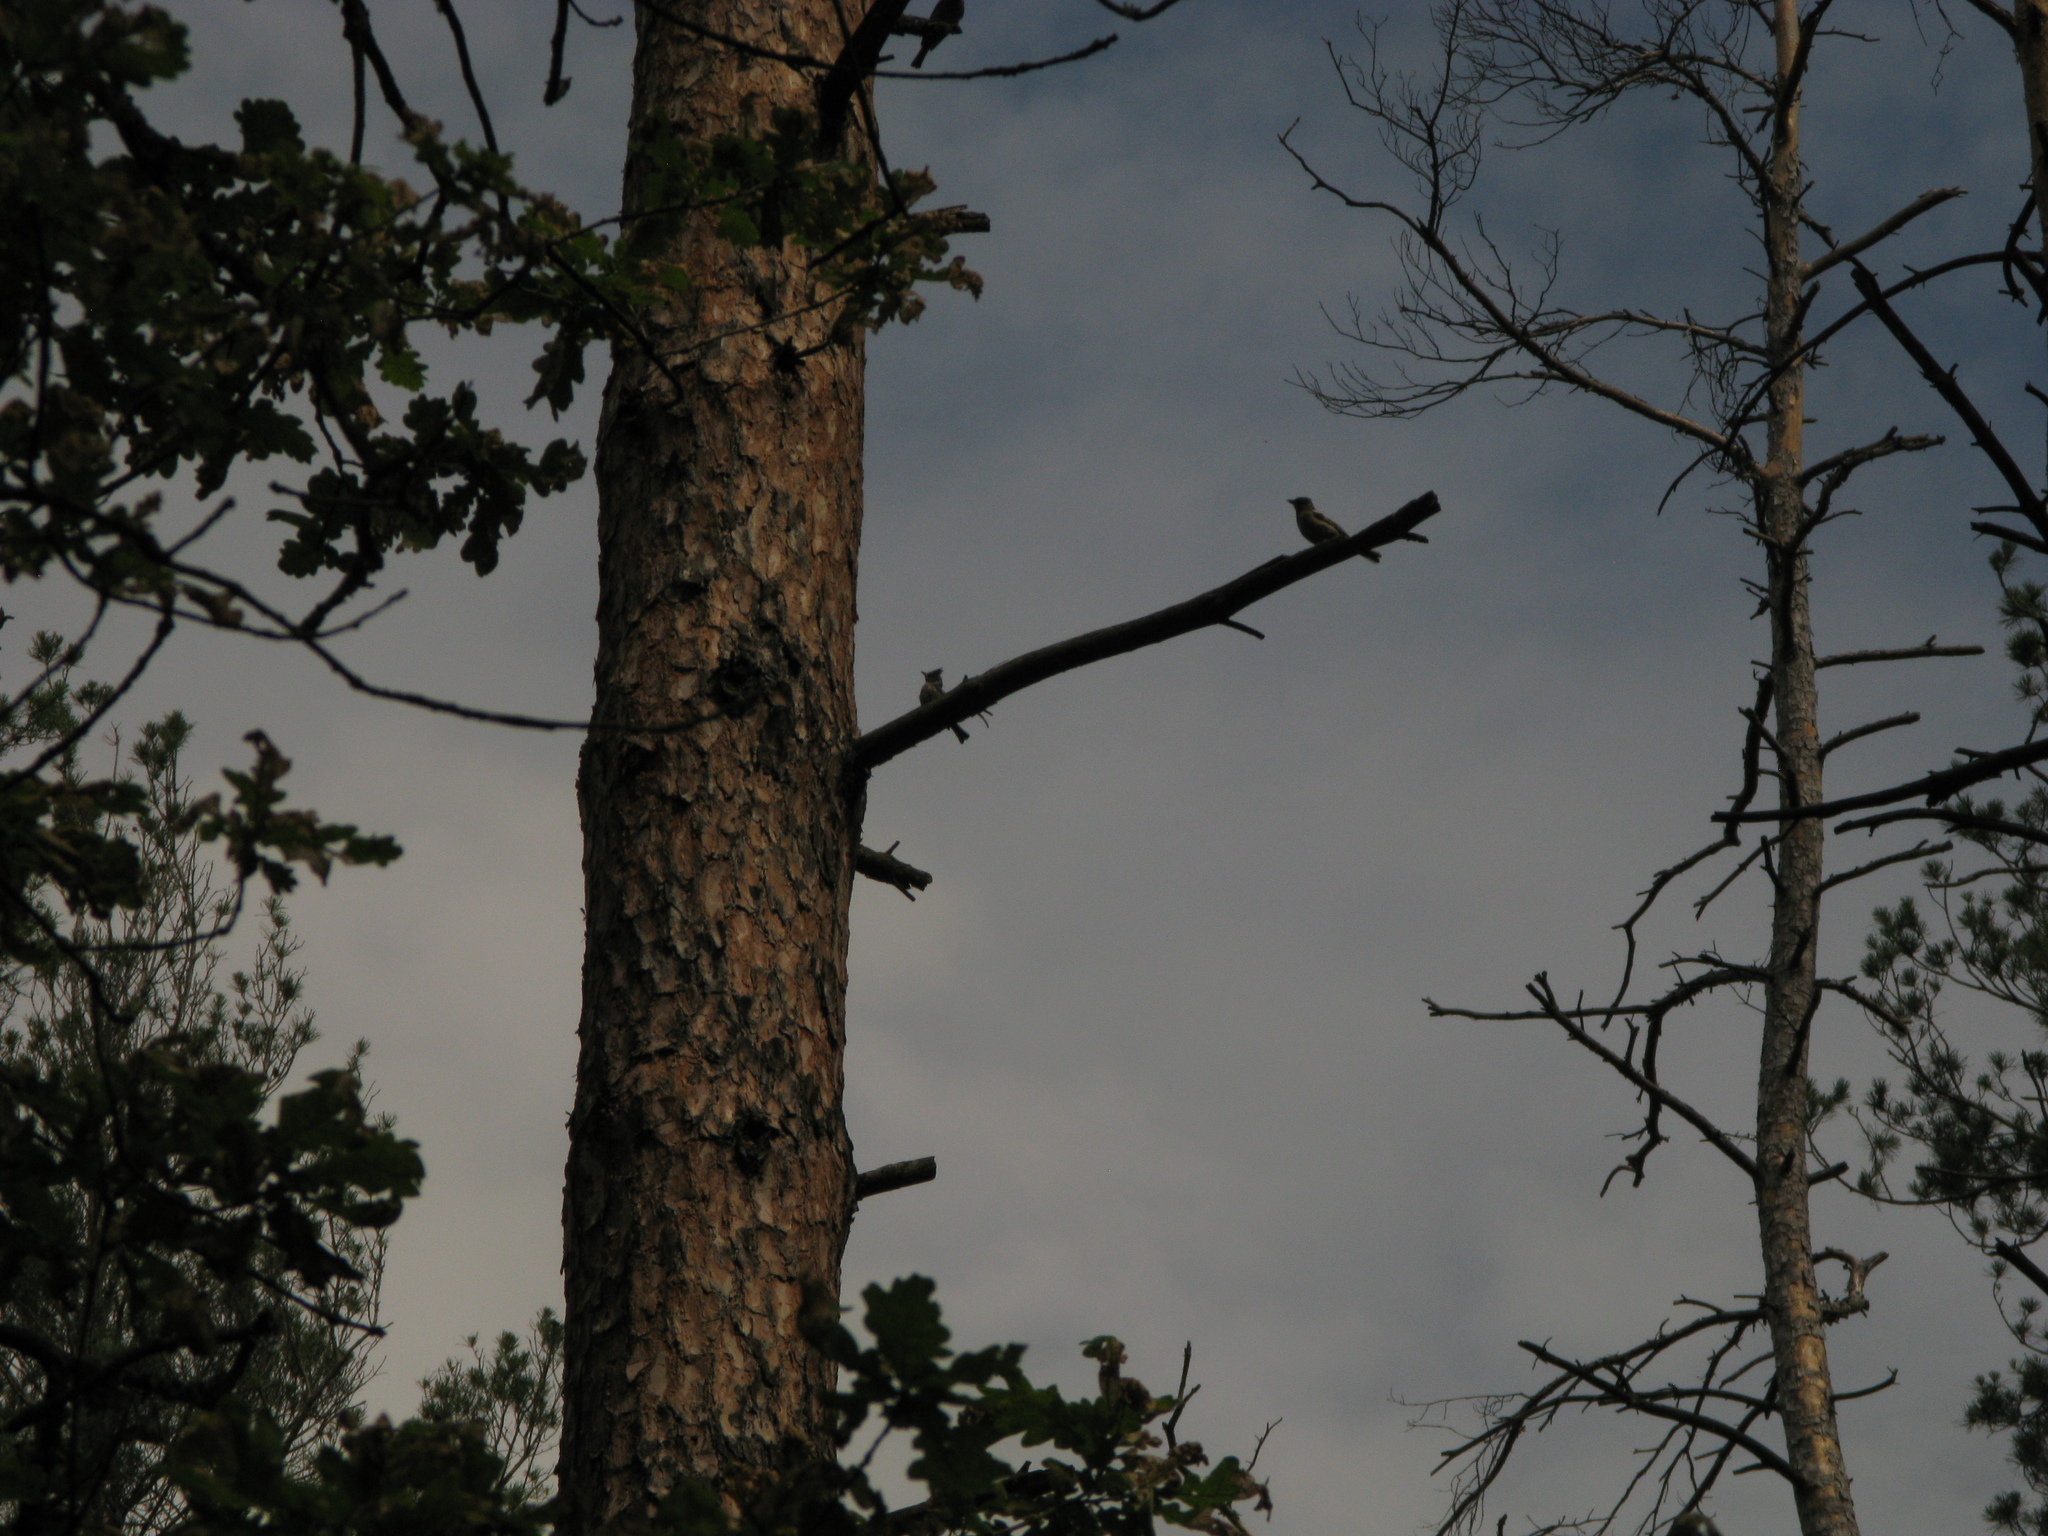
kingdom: Animalia
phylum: Chordata
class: Aves
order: Passeriformes
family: Paridae
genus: Lophophanes
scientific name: Lophophanes cristatus
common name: European crested tit
